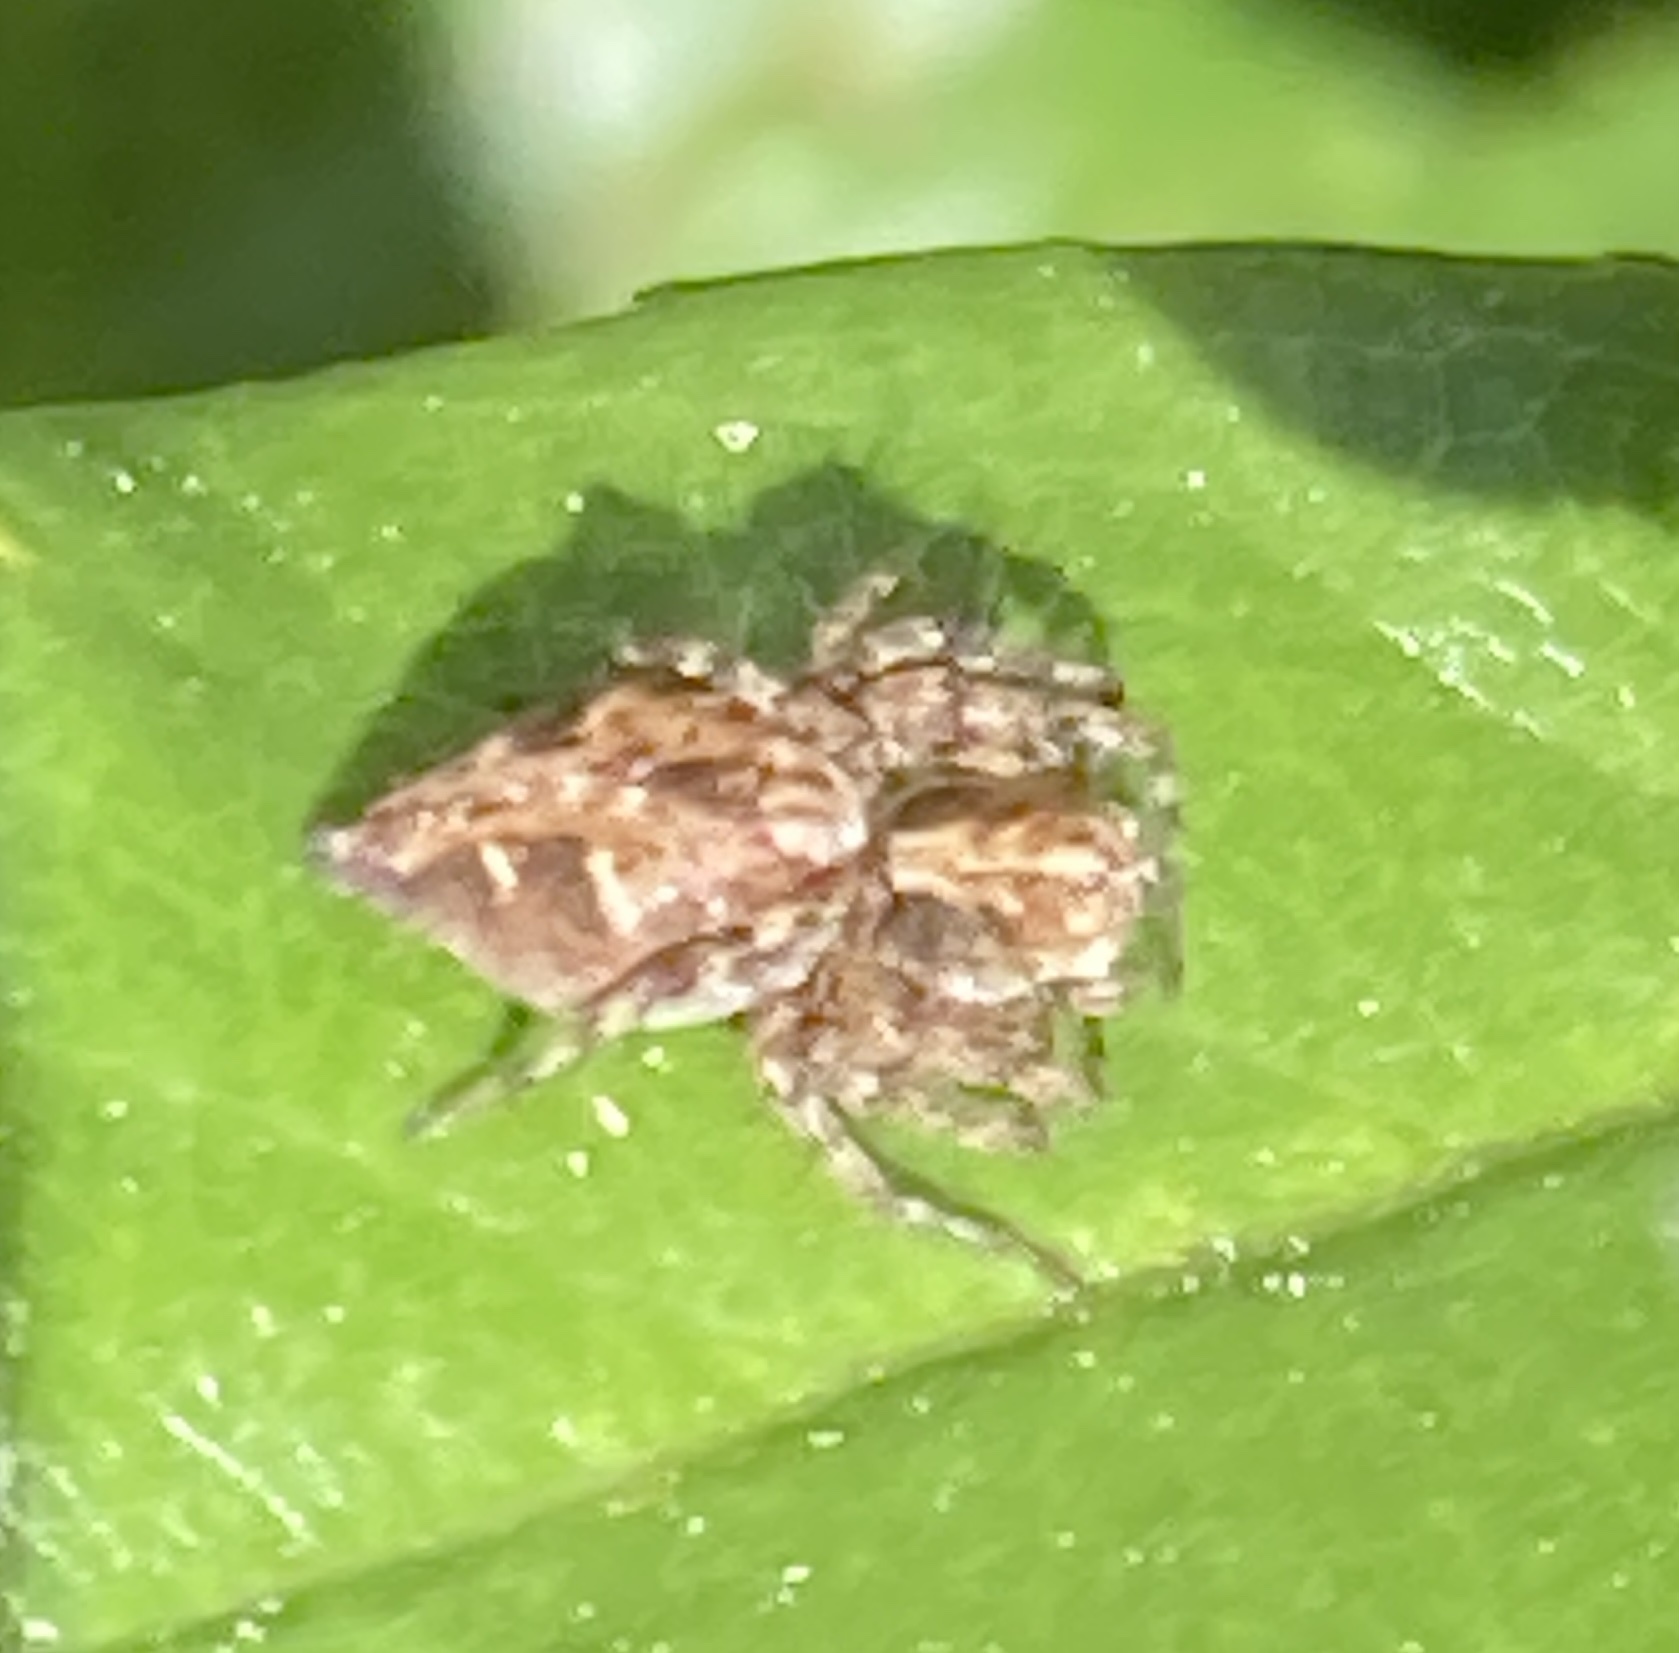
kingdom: Animalia
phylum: Arthropoda
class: Arachnida
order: Araneae
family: Oxyopidae
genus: Oxyopes
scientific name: Oxyopes scalaris
